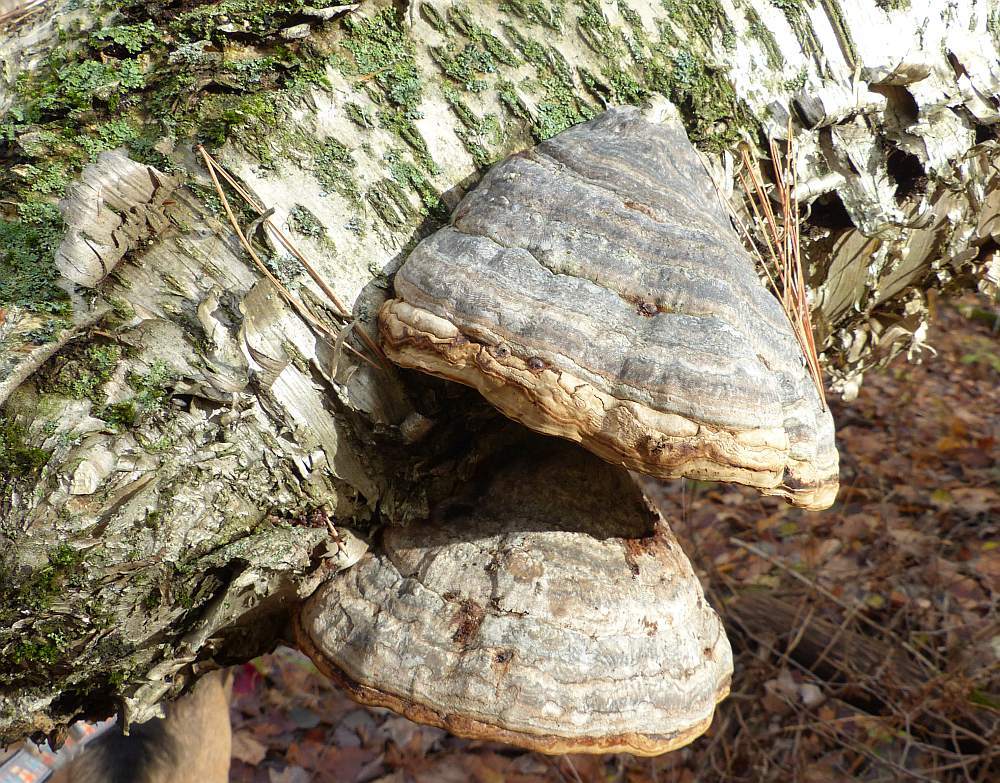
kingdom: Fungi
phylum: Basidiomycota
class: Agaricomycetes
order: Polyporales
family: Polyporaceae
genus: Fomes
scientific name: Fomes fomentarius
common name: Hoof fungus
